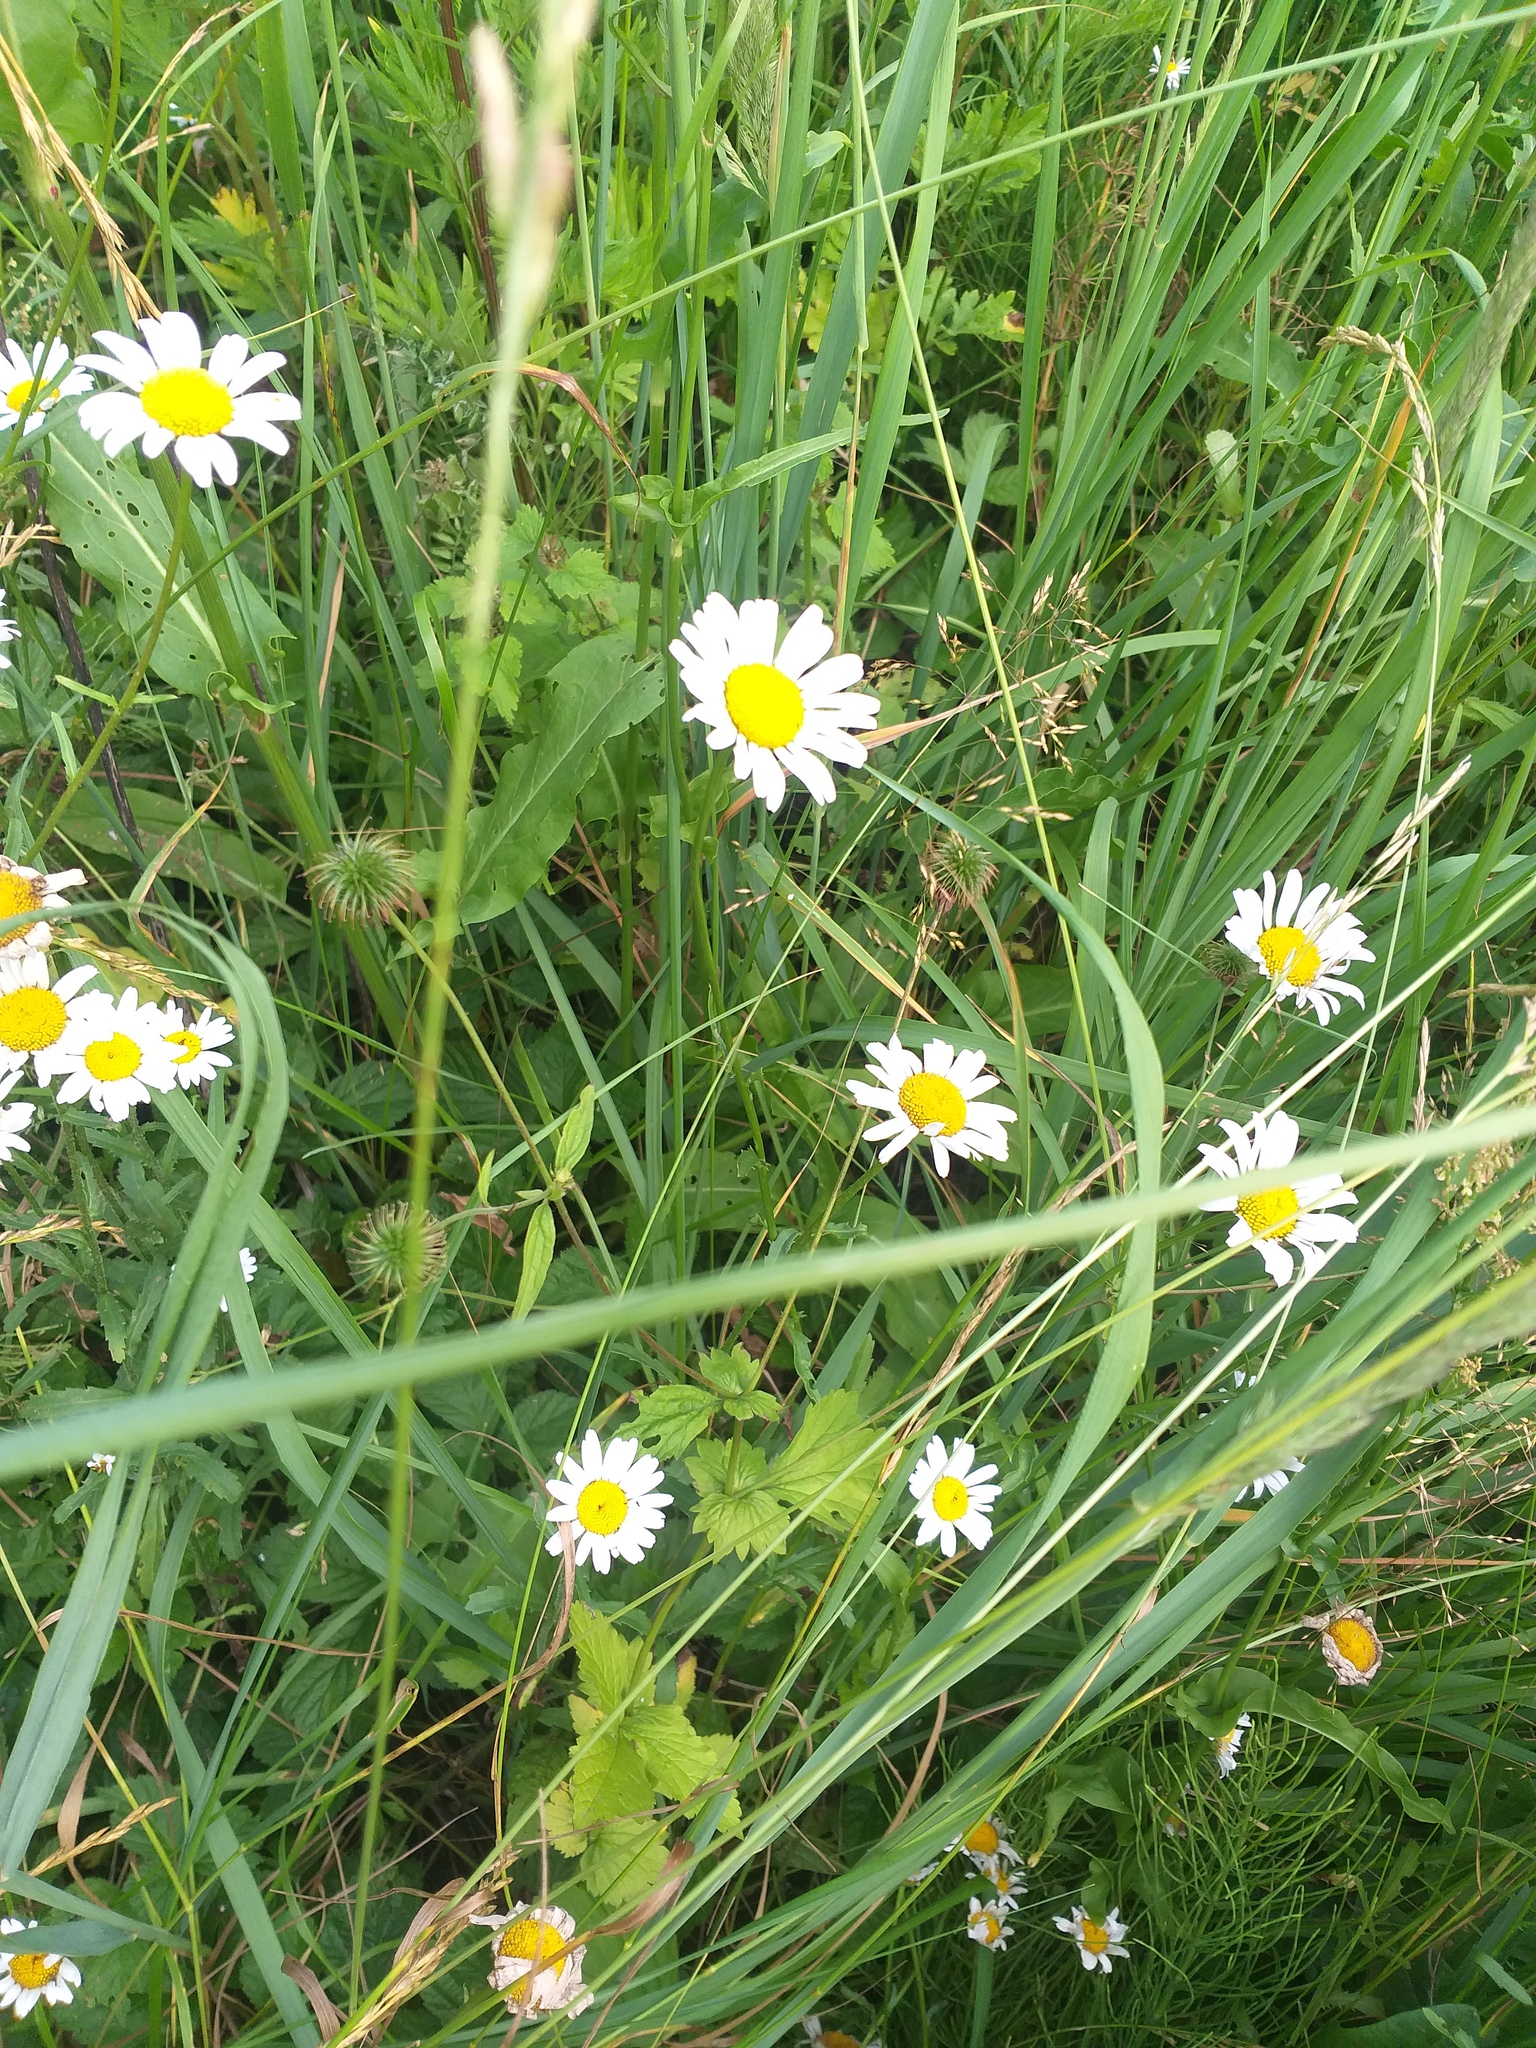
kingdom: Plantae
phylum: Tracheophyta
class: Magnoliopsida
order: Rosales
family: Rosaceae
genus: Geum
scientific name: Geum urbanum
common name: Wood avens
